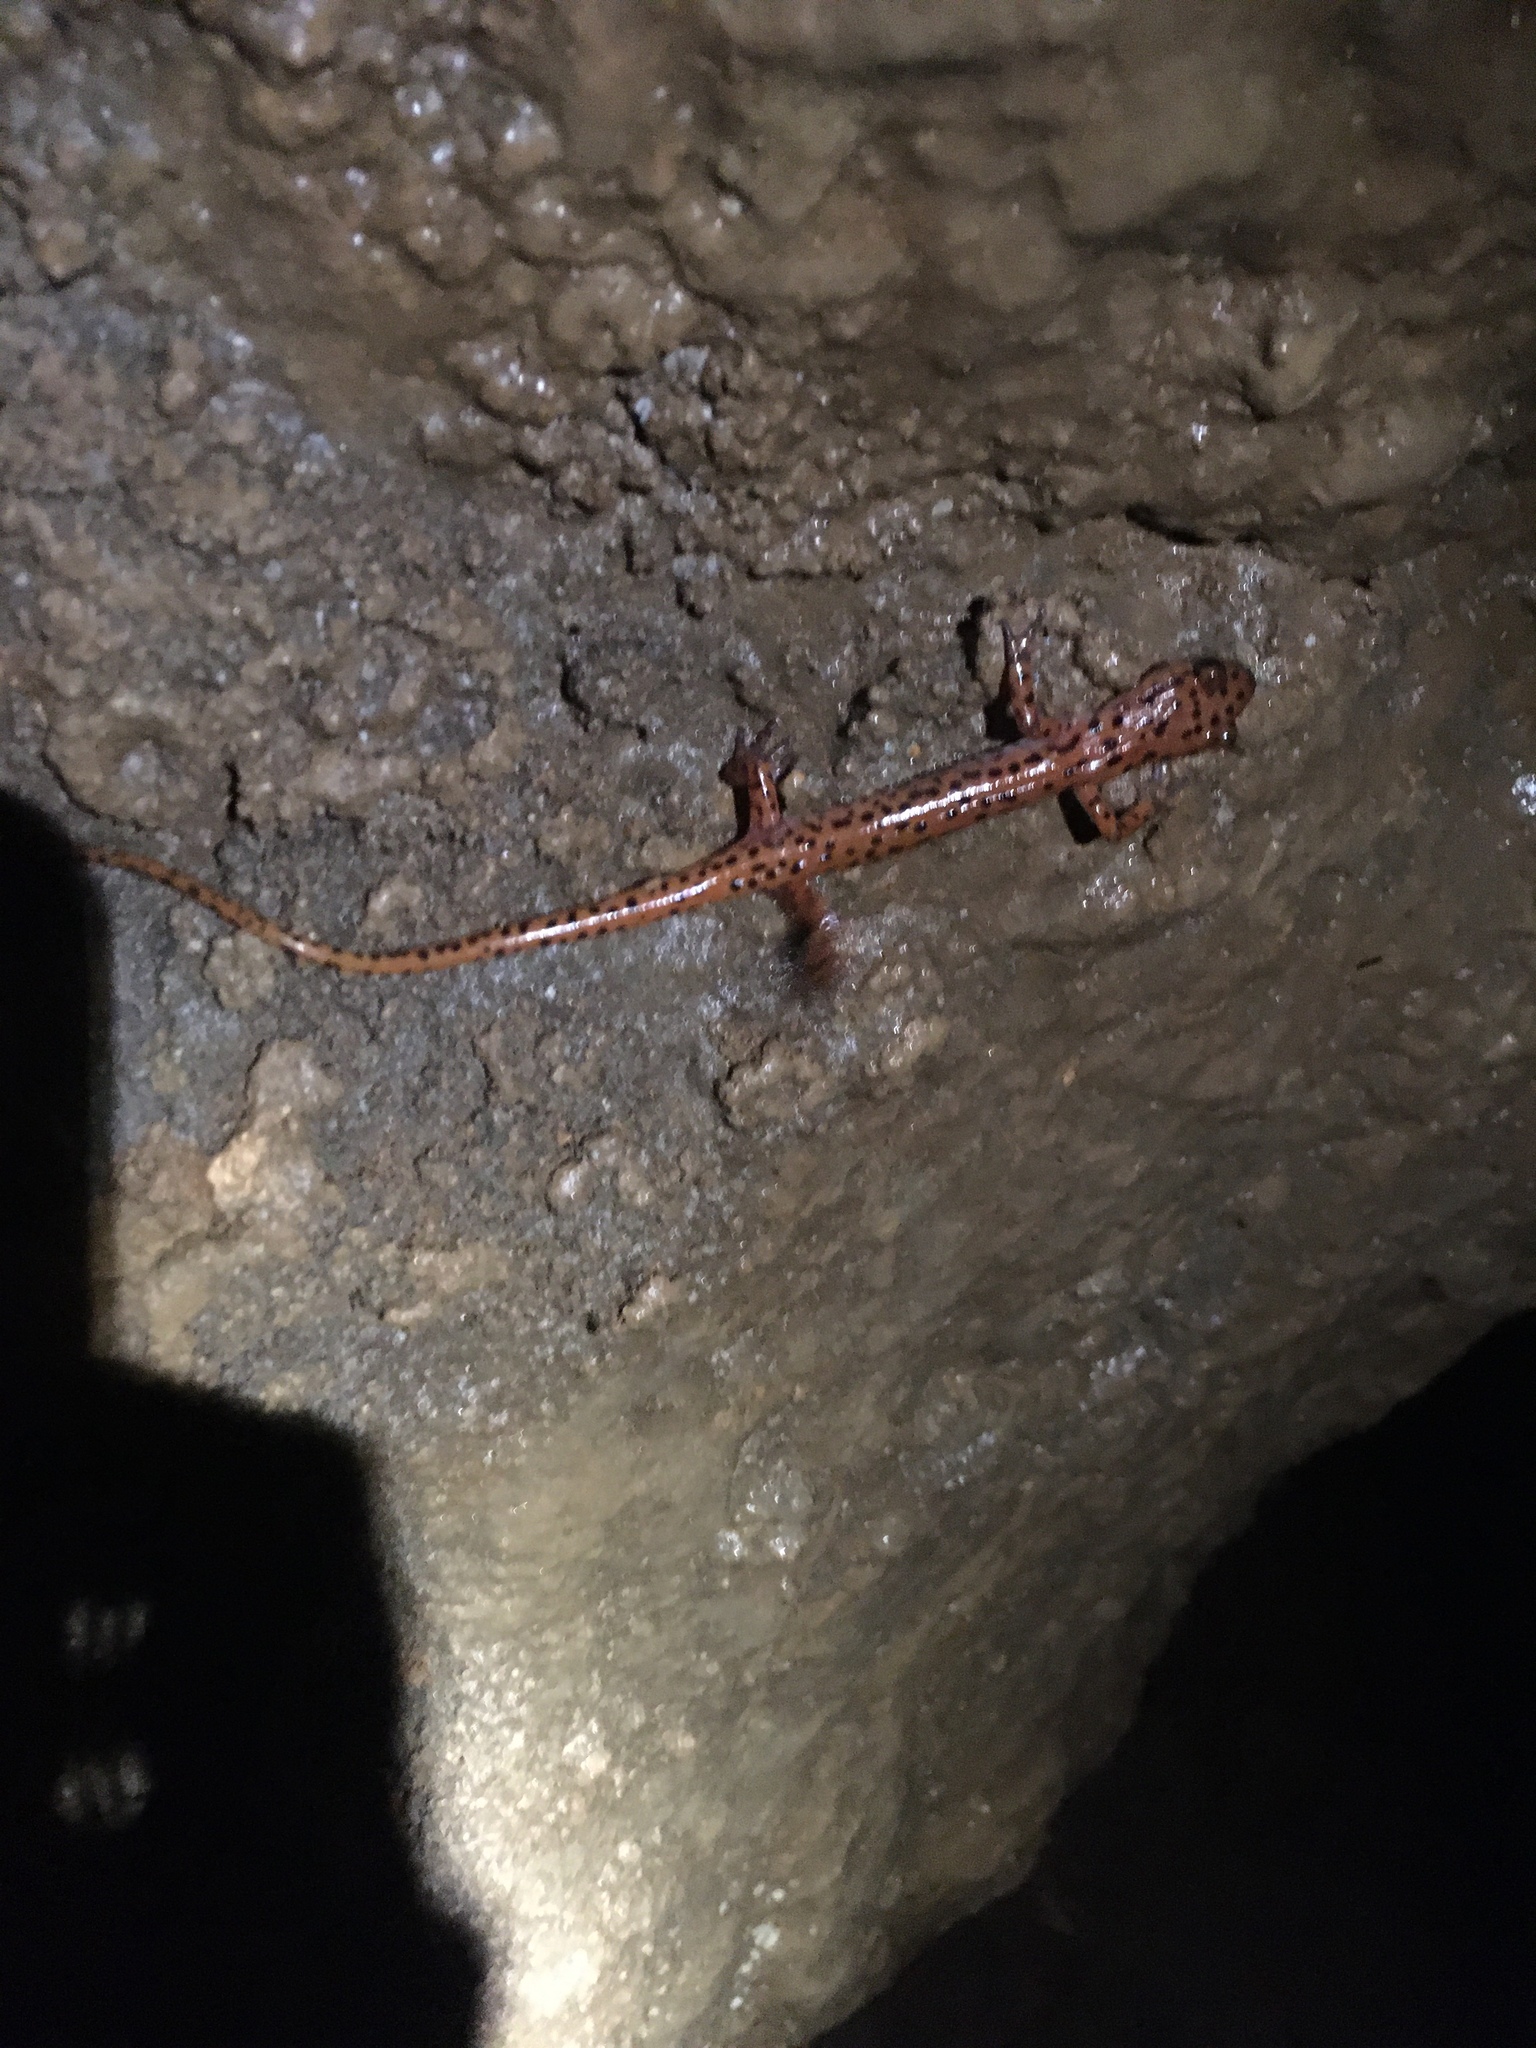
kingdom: Animalia
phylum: Chordata
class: Amphibia
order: Caudata
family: Plethodontidae
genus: Eurycea
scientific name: Eurycea lucifuga
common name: Cave salamander
